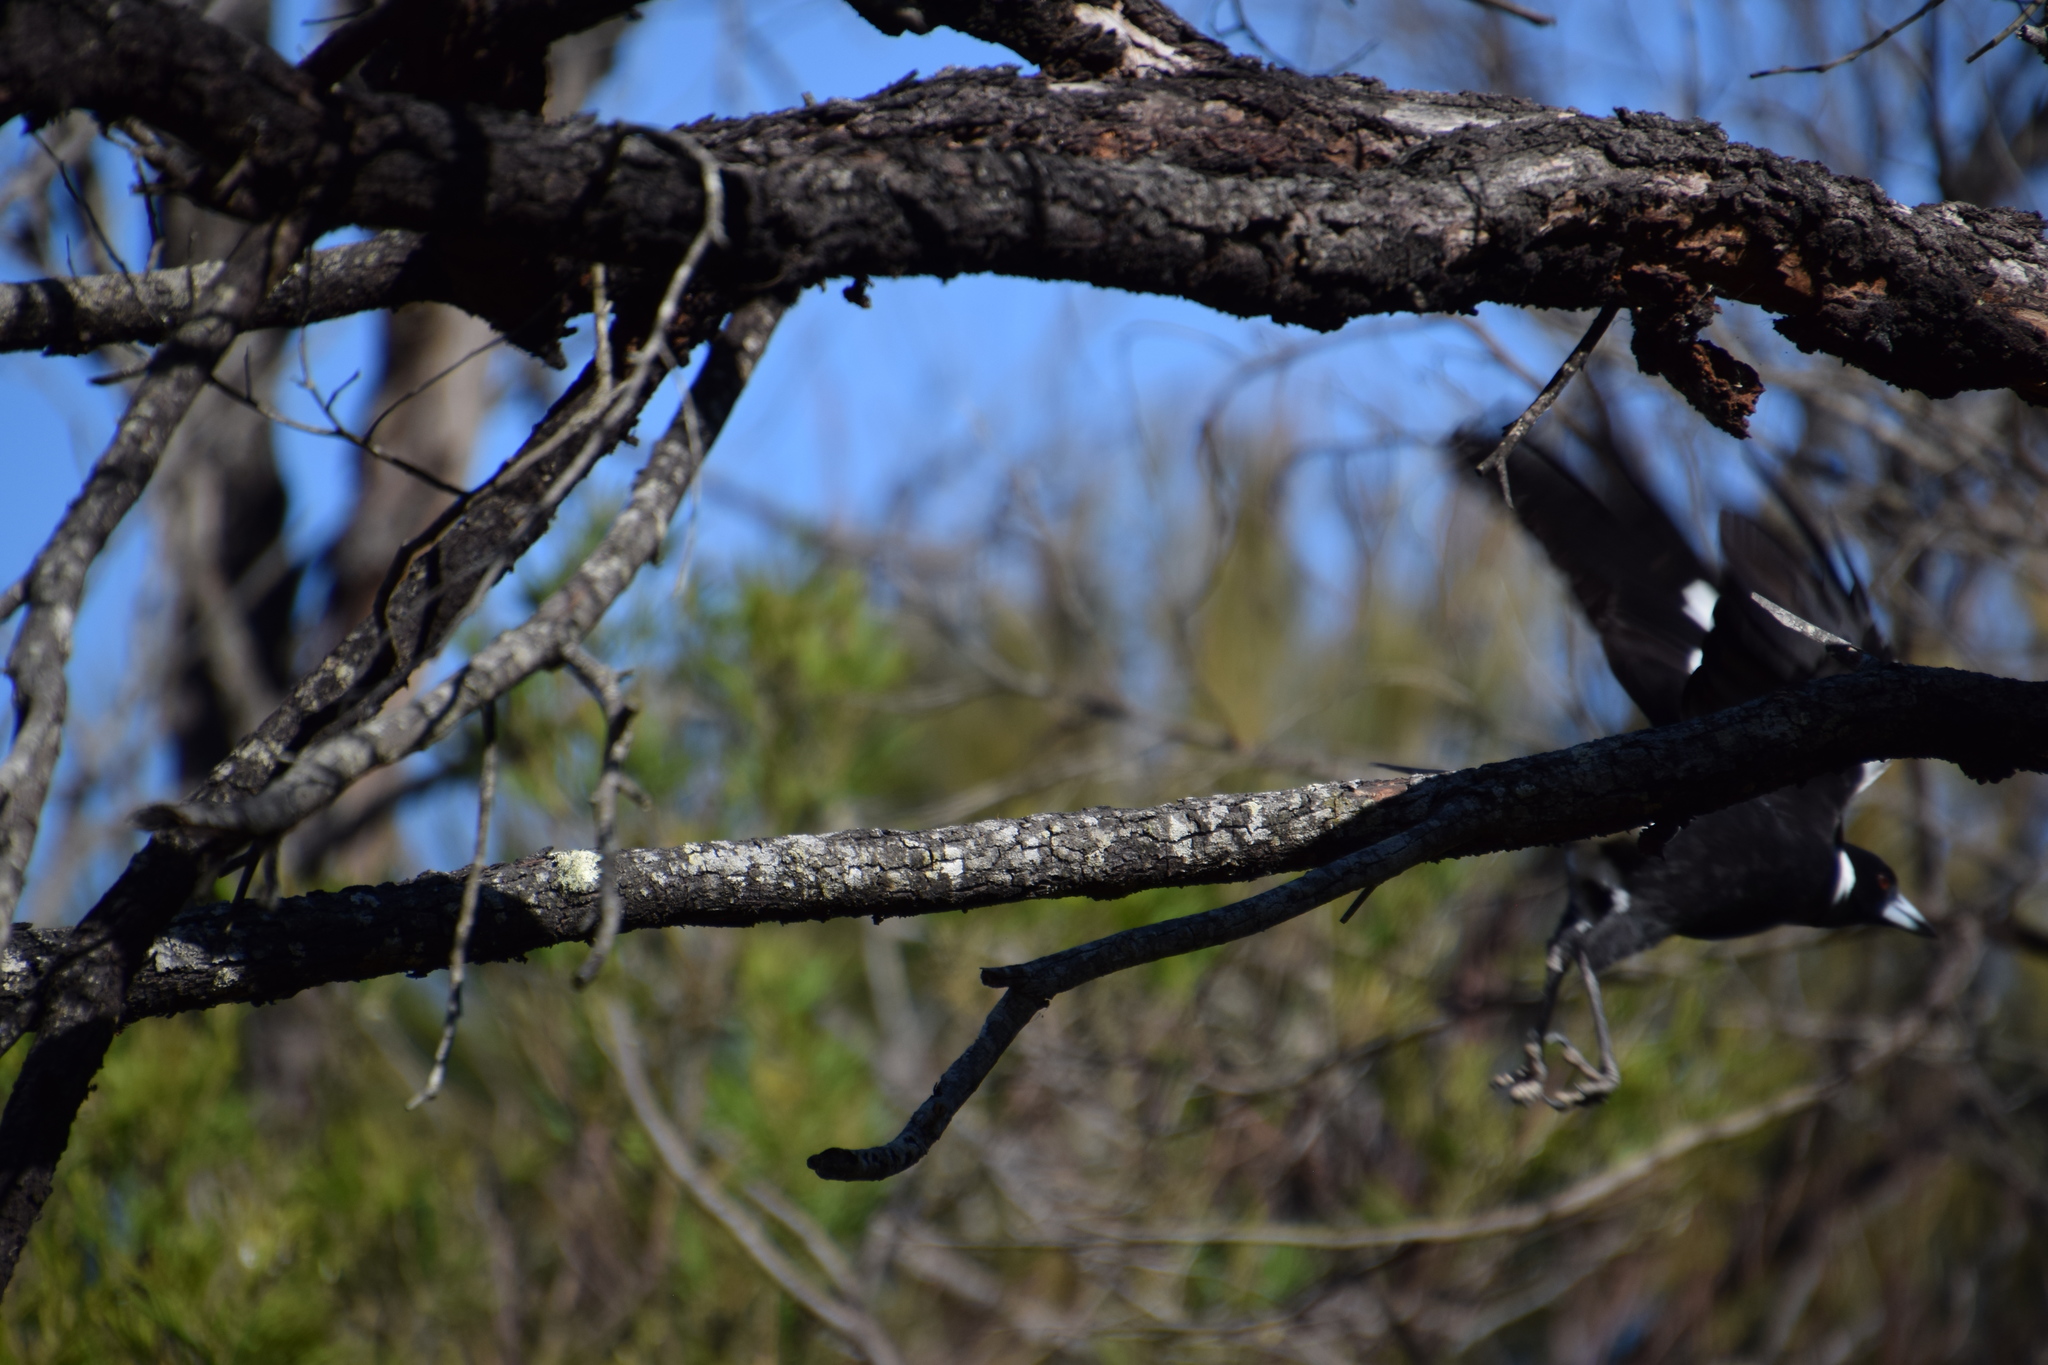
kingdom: Animalia
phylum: Chordata
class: Aves
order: Passeriformes
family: Cracticidae
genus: Gymnorhina
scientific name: Gymnorhina tibicen
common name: Australian magpie
